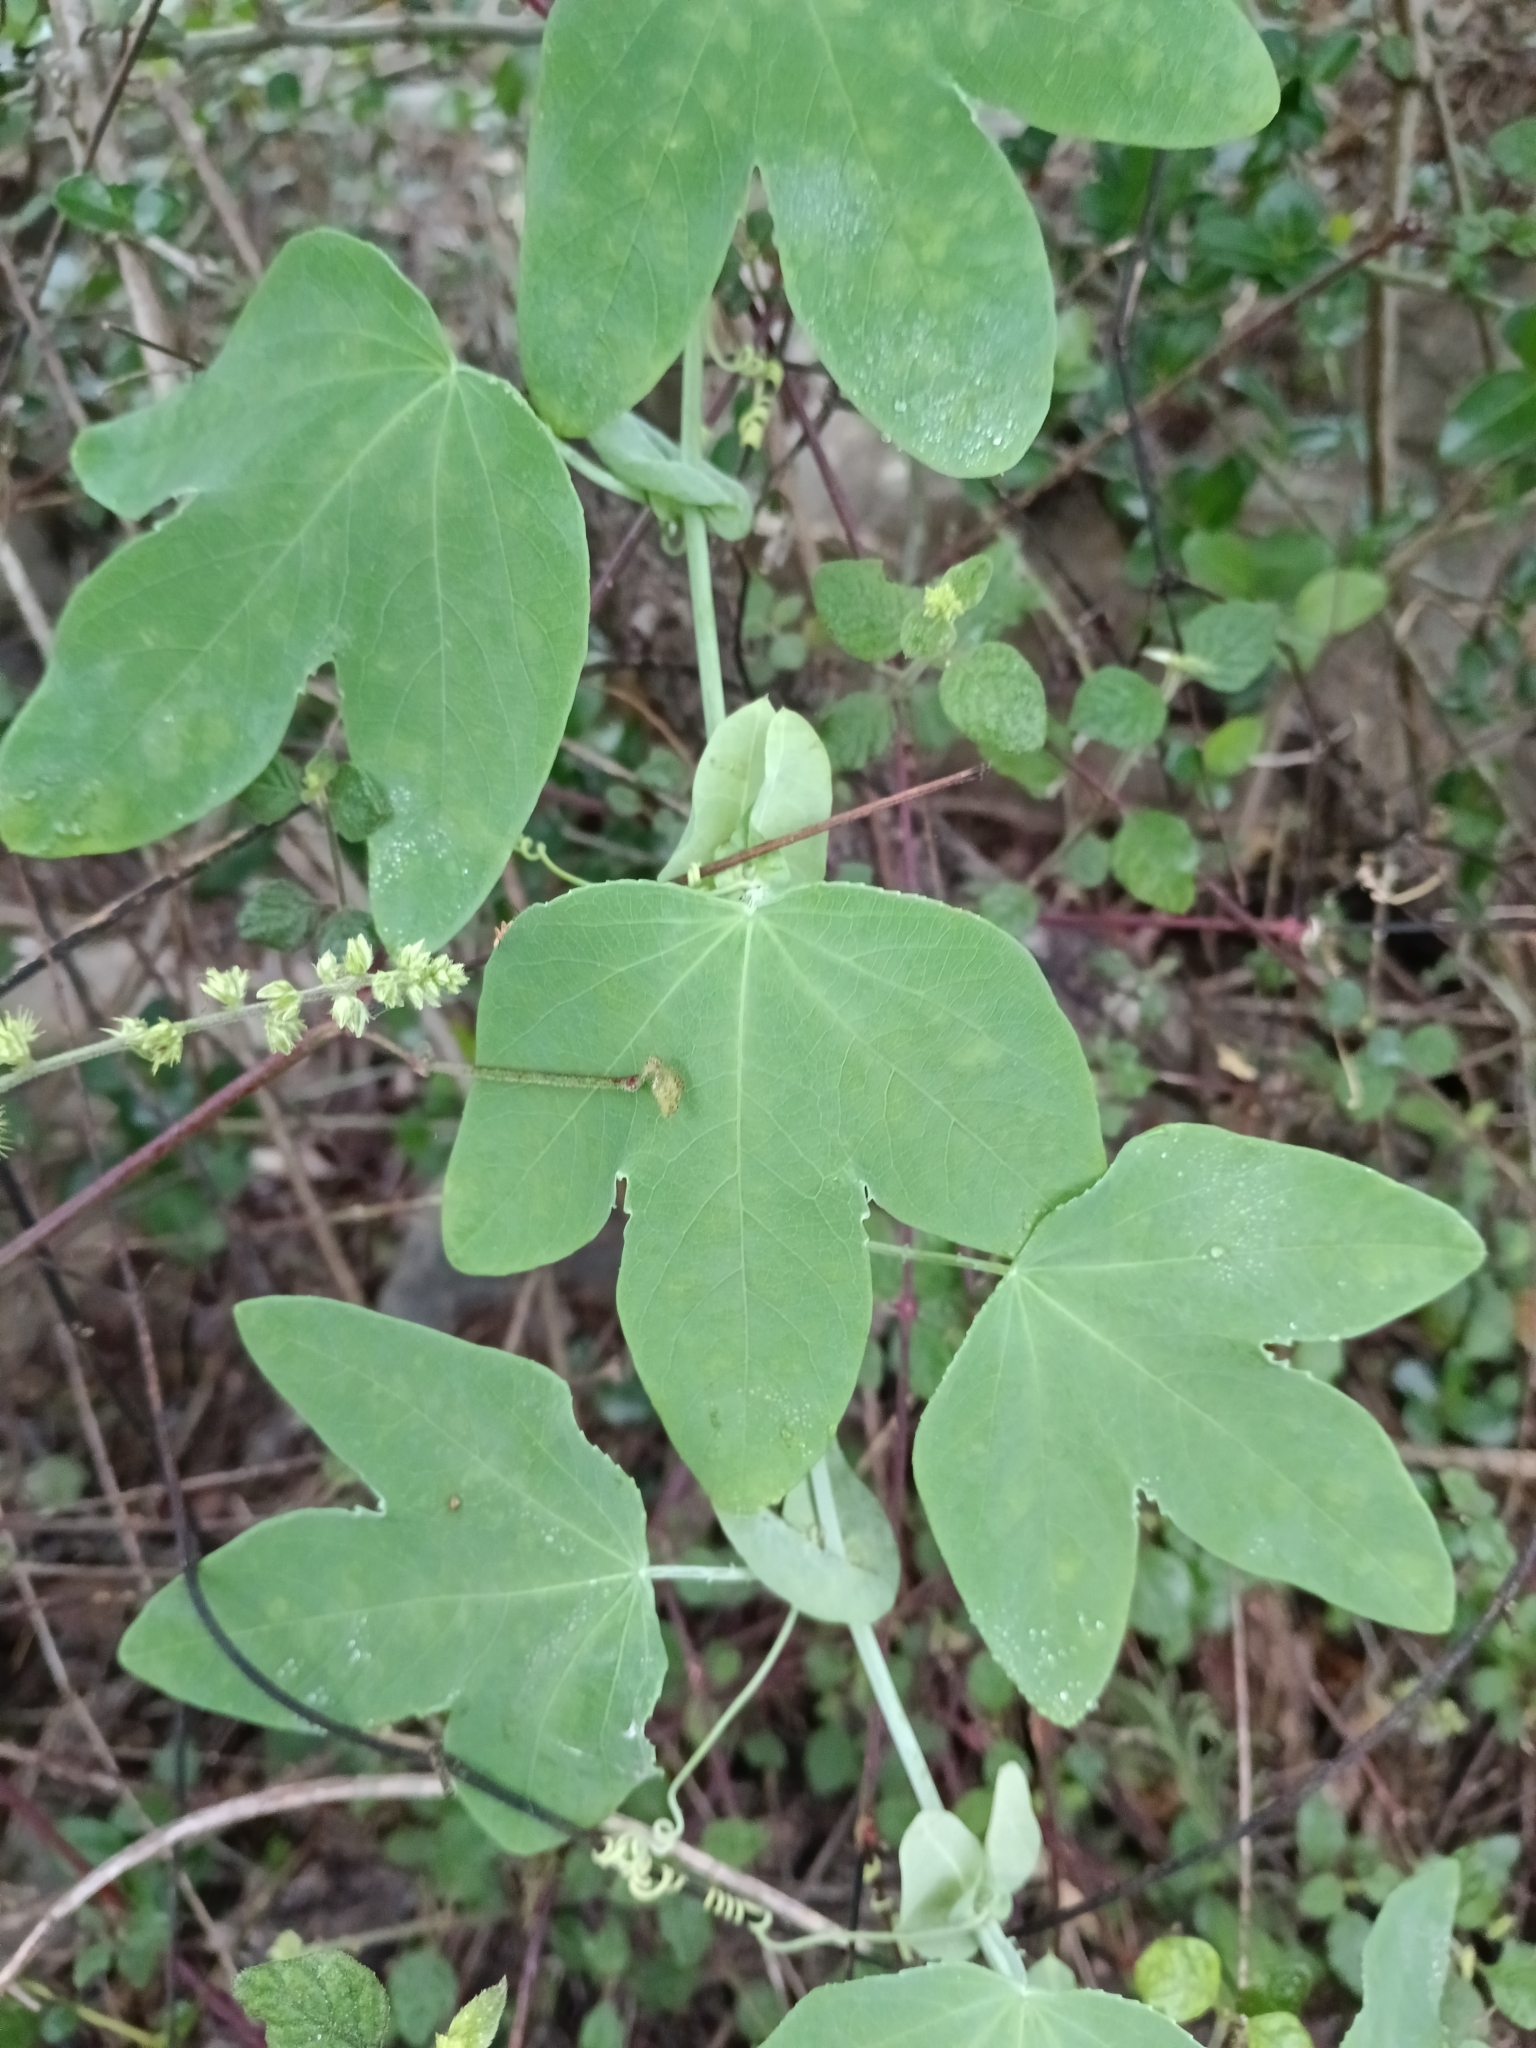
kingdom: Plantae
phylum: Tracheophyta
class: Magnoliopsida
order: Malpighiales
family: Passifloraceae
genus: Passiflora
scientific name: Passiflora subpeltata
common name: White passionflower
